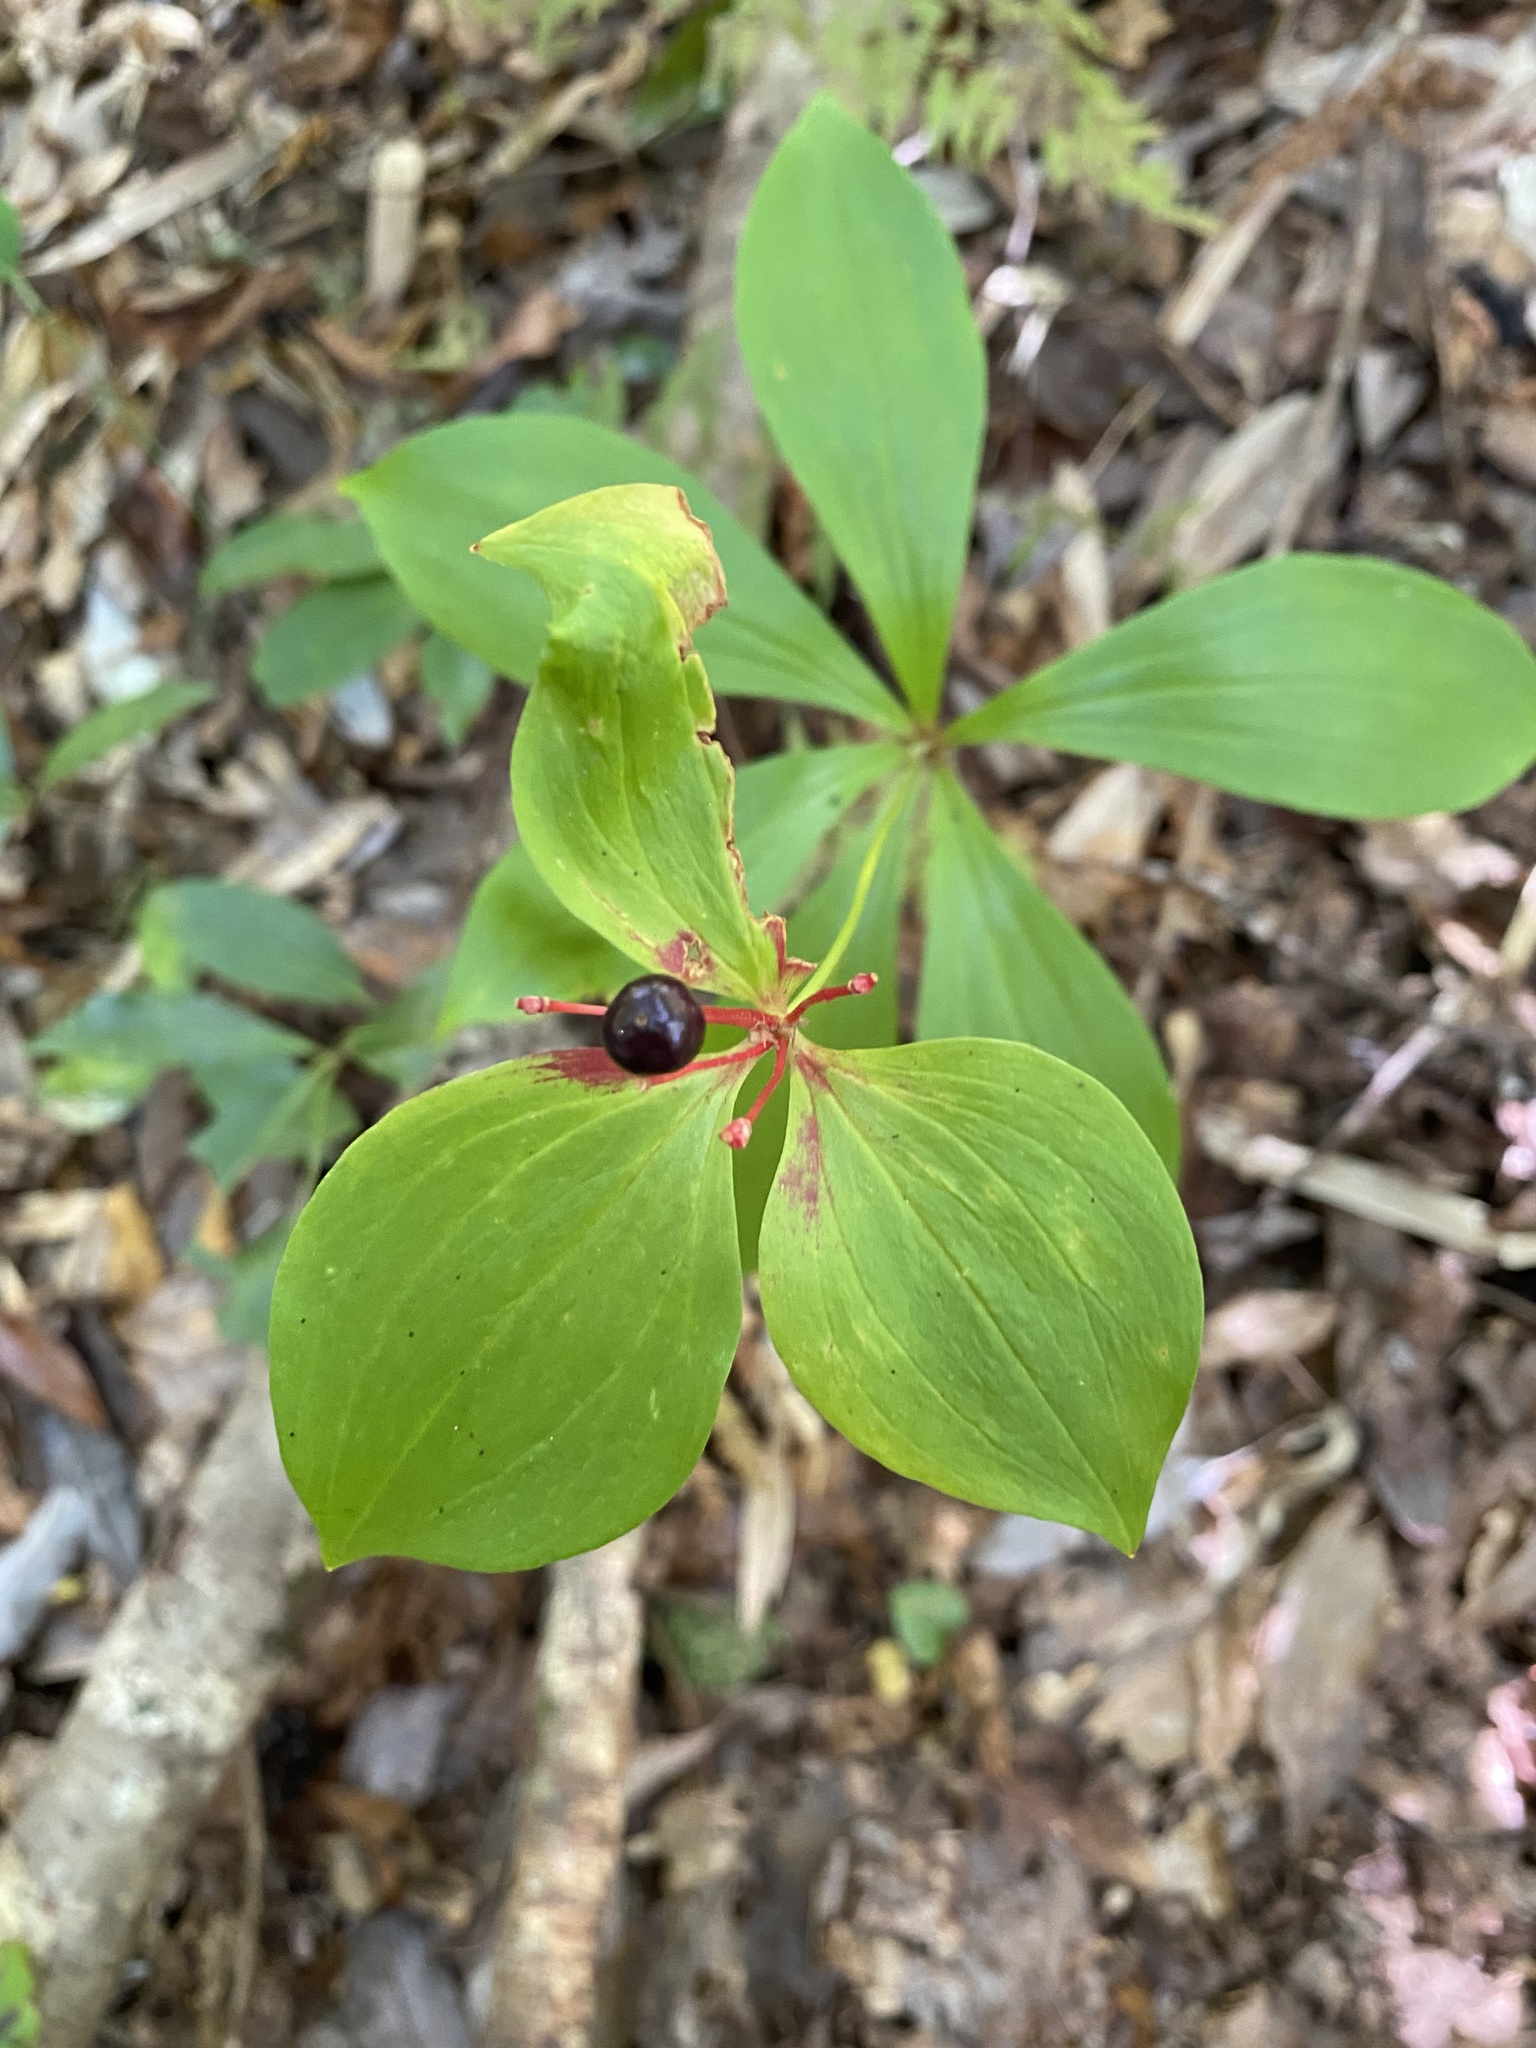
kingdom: Plantae
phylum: Tracheophyta
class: Liliopsida
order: Liliales
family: Liliaceae
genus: Medeola
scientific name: Medeola virginiana
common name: Indian cucumber-root
